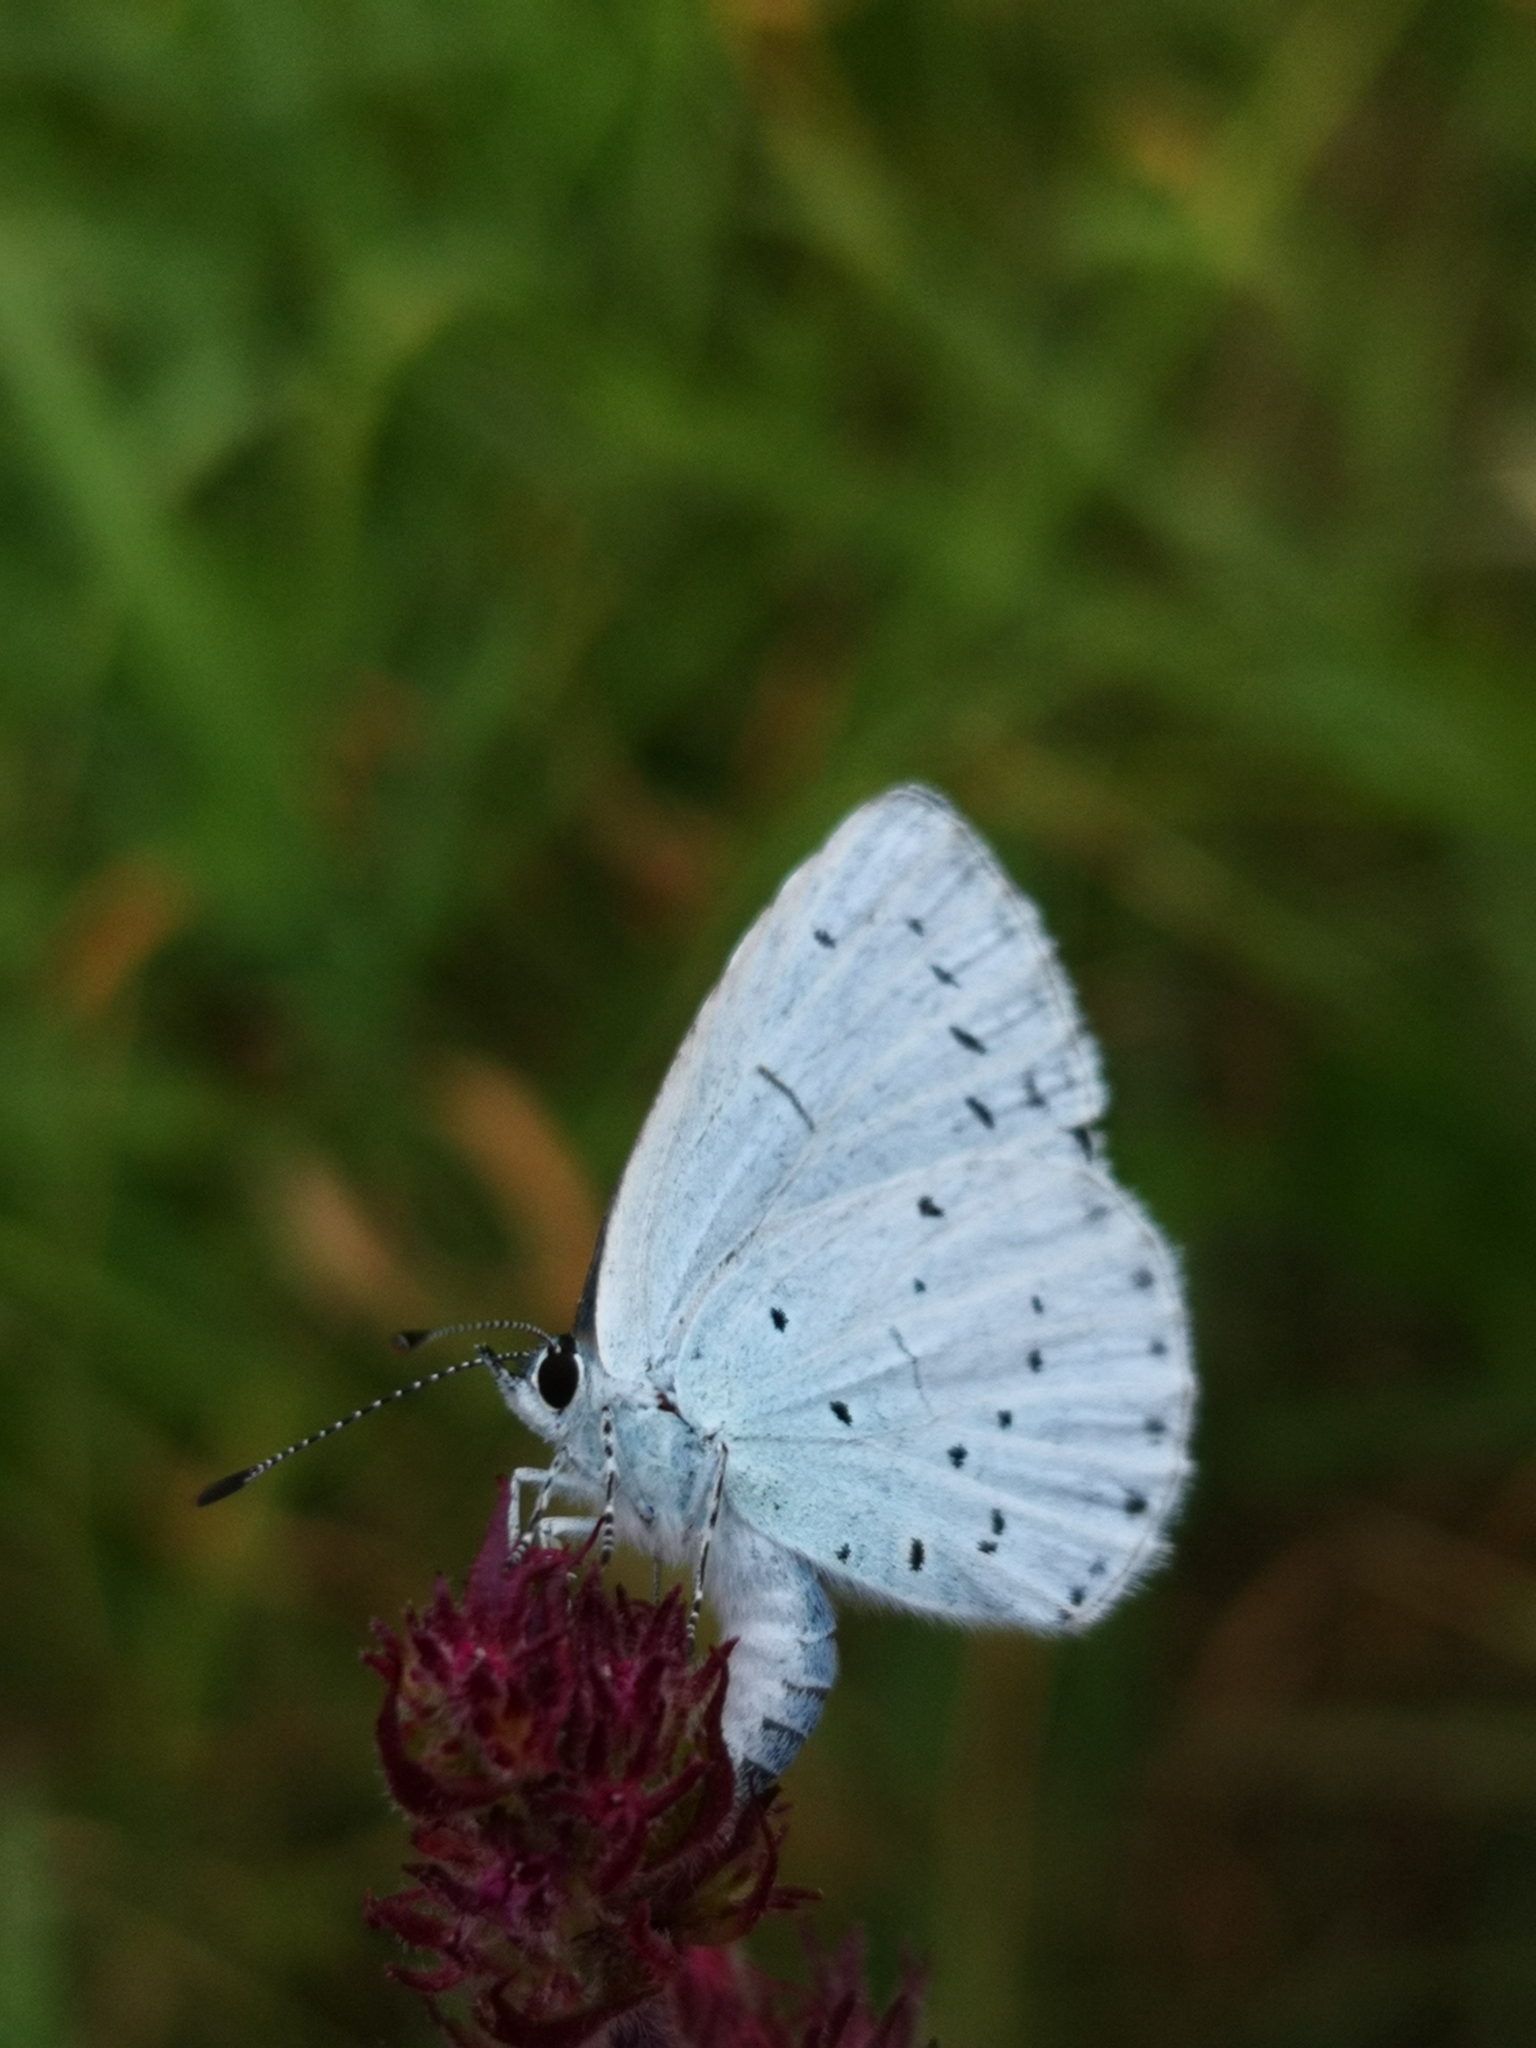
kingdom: Animalia
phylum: Arthropoda
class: Insecta
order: Lepidoptera
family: Lycaenidae
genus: Celastrina
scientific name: Celastrina argiolus
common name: Holly blue
